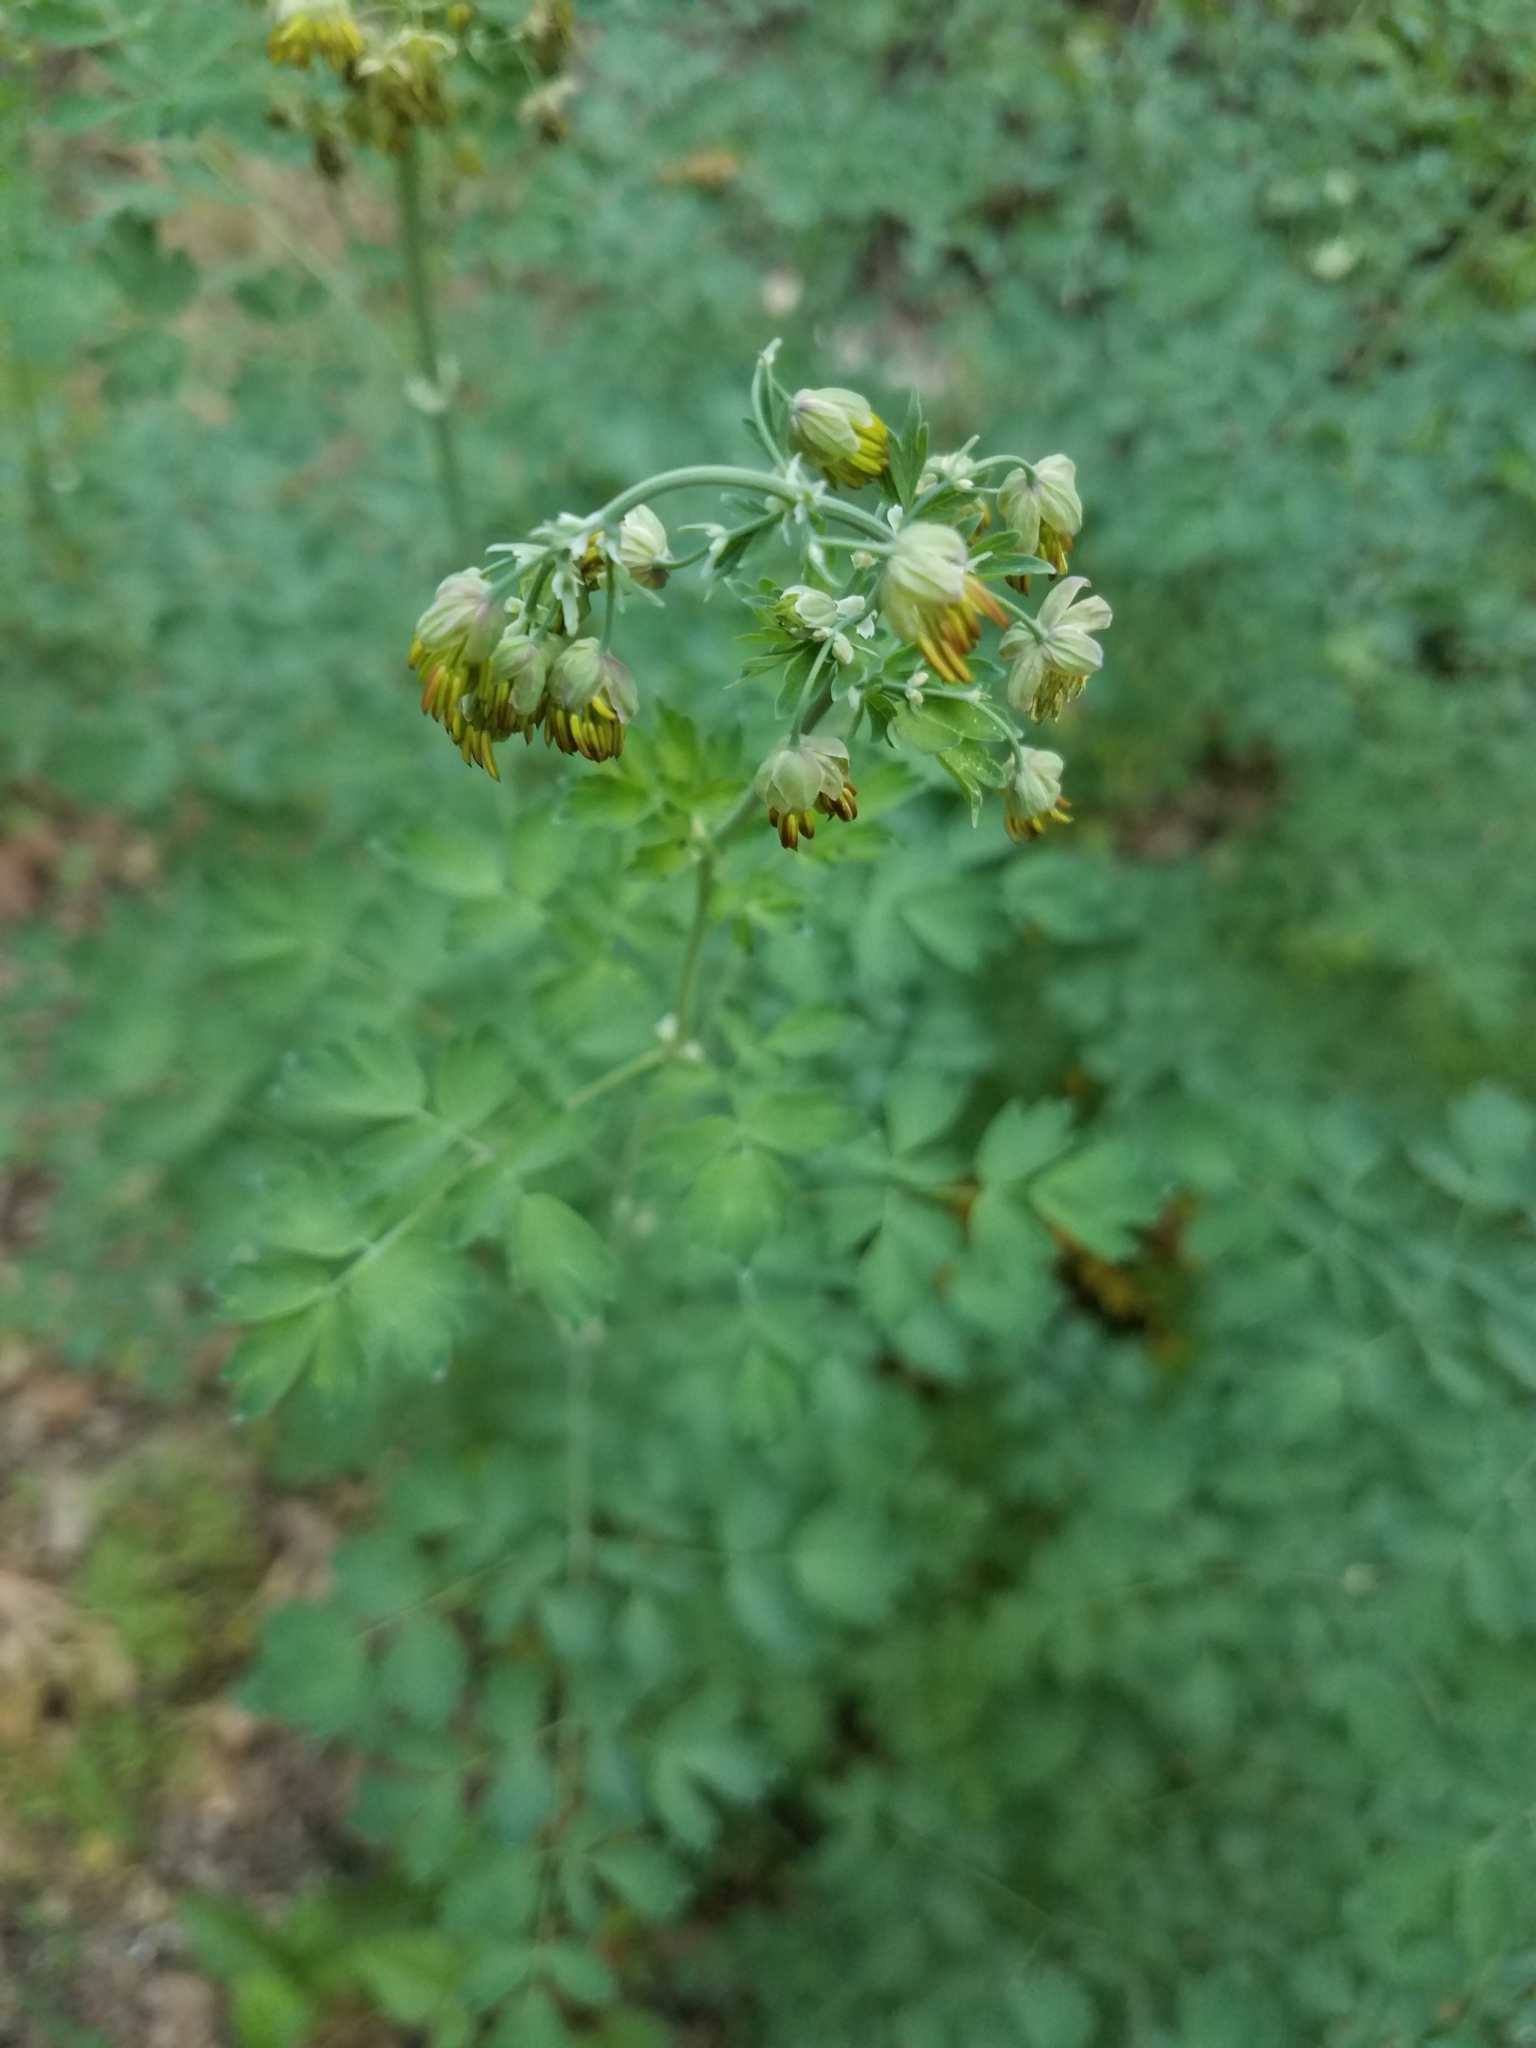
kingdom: Plantae
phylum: Tracheophyta
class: Magnoliopsida
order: Ranunculales
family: Ranunculaceae
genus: Thalictrum
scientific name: Thalictrum fendleri
